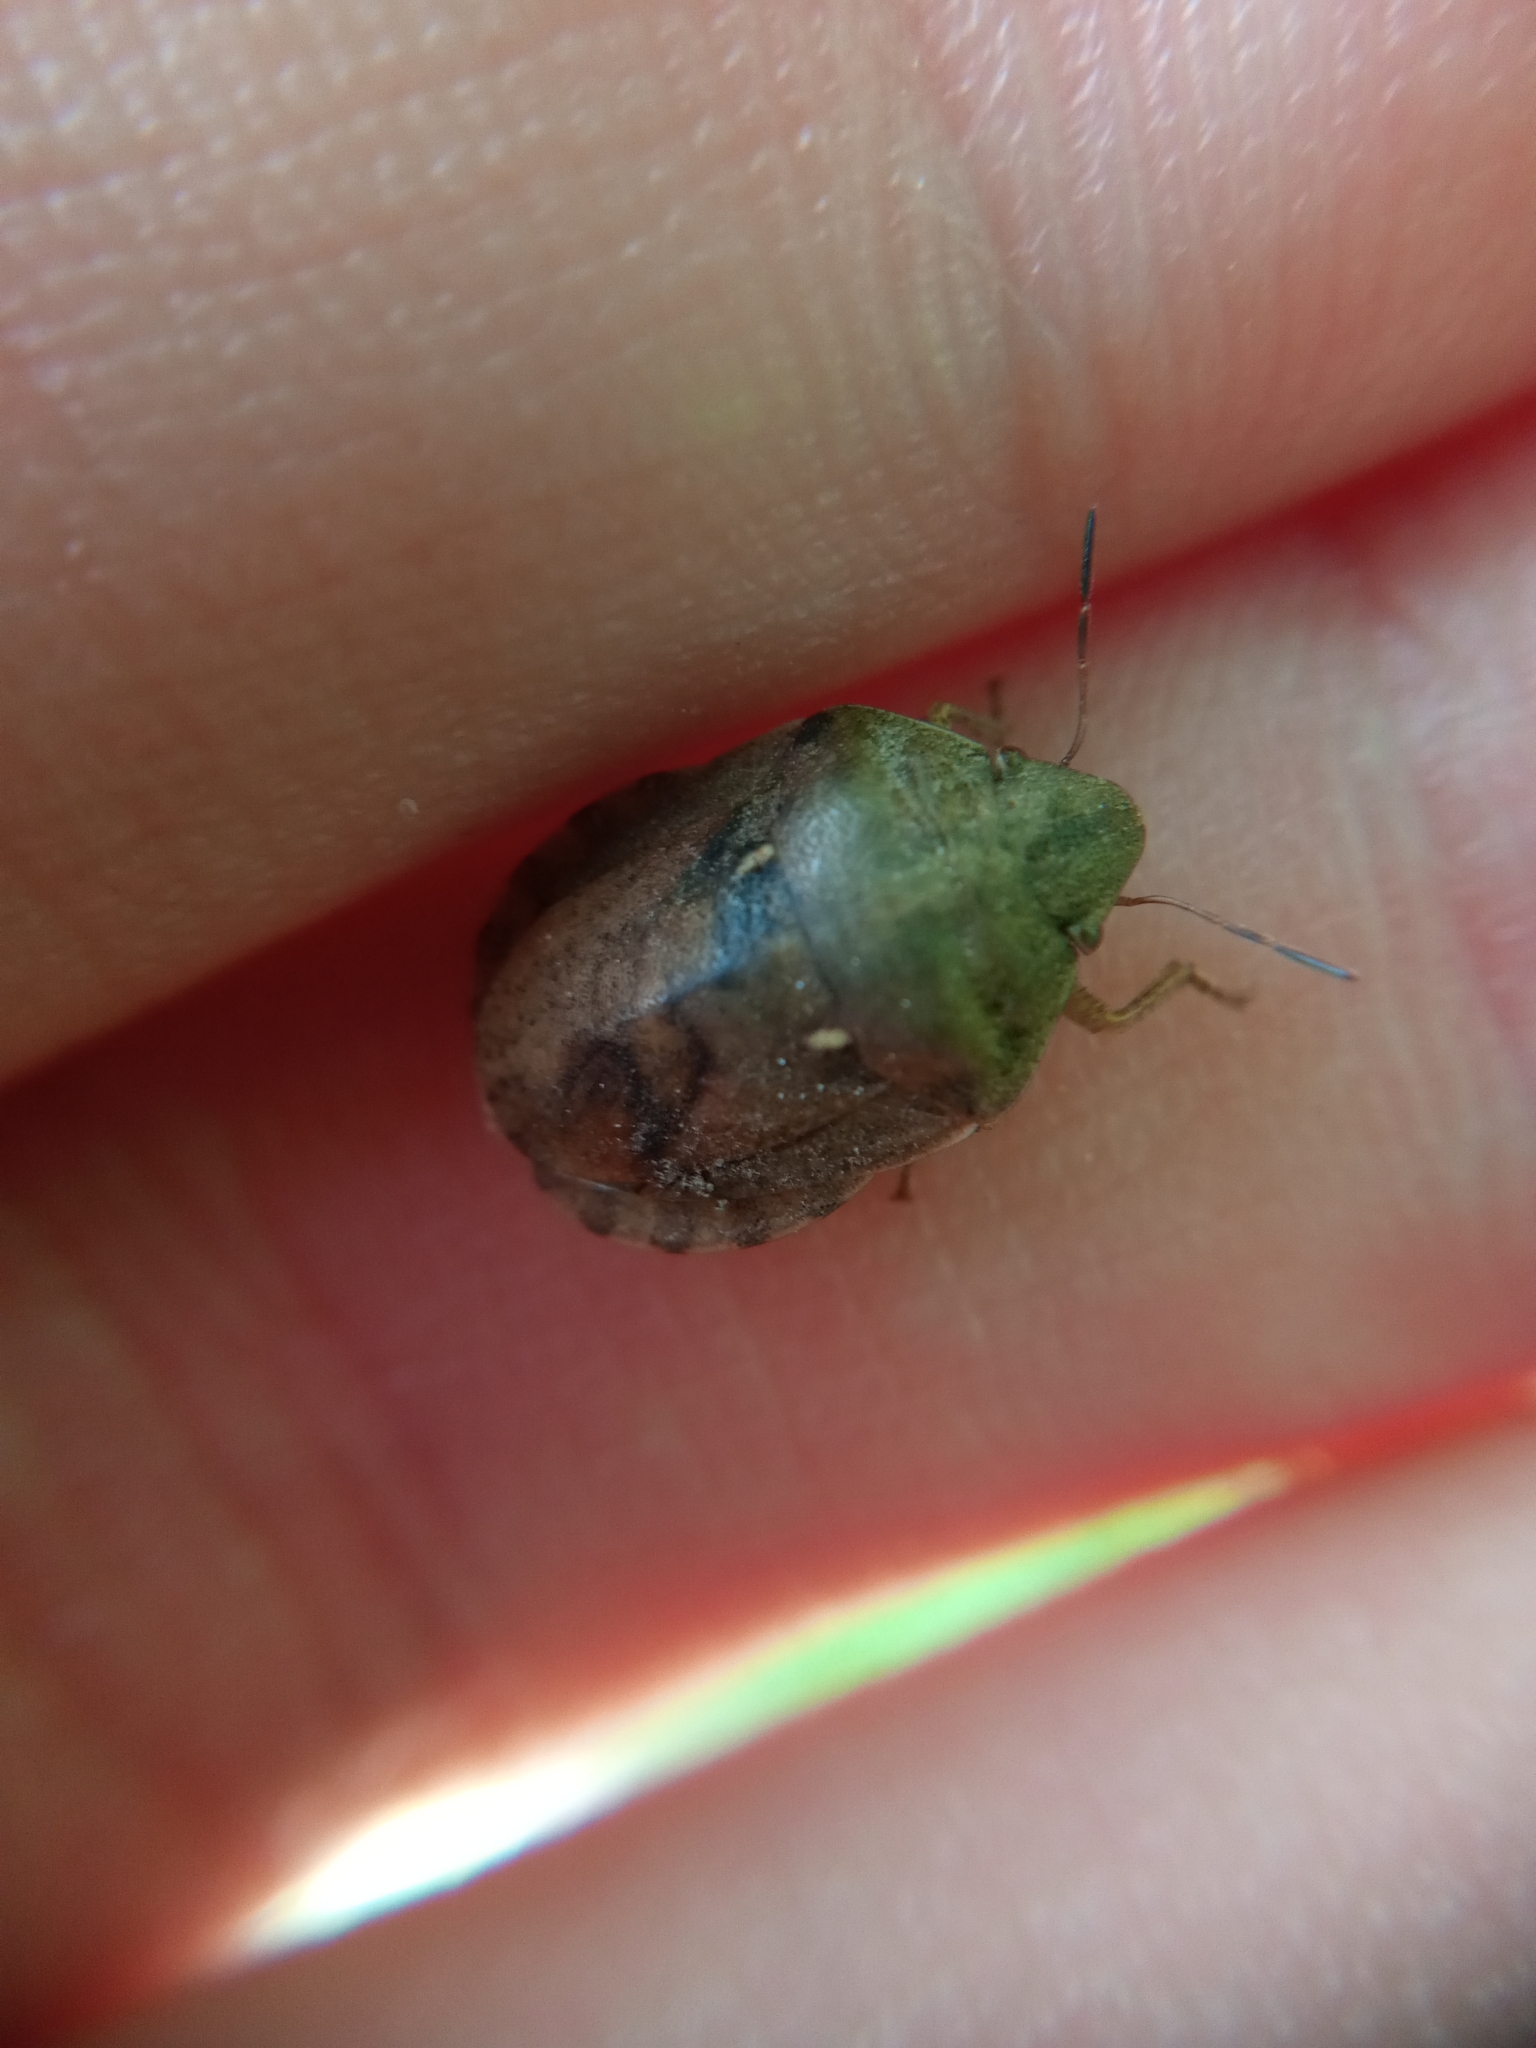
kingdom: Animalia
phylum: Arthropoda
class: Insecta
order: Hemiptera
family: Scutelleridae
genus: Eurygaster
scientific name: Eurygaster maura
